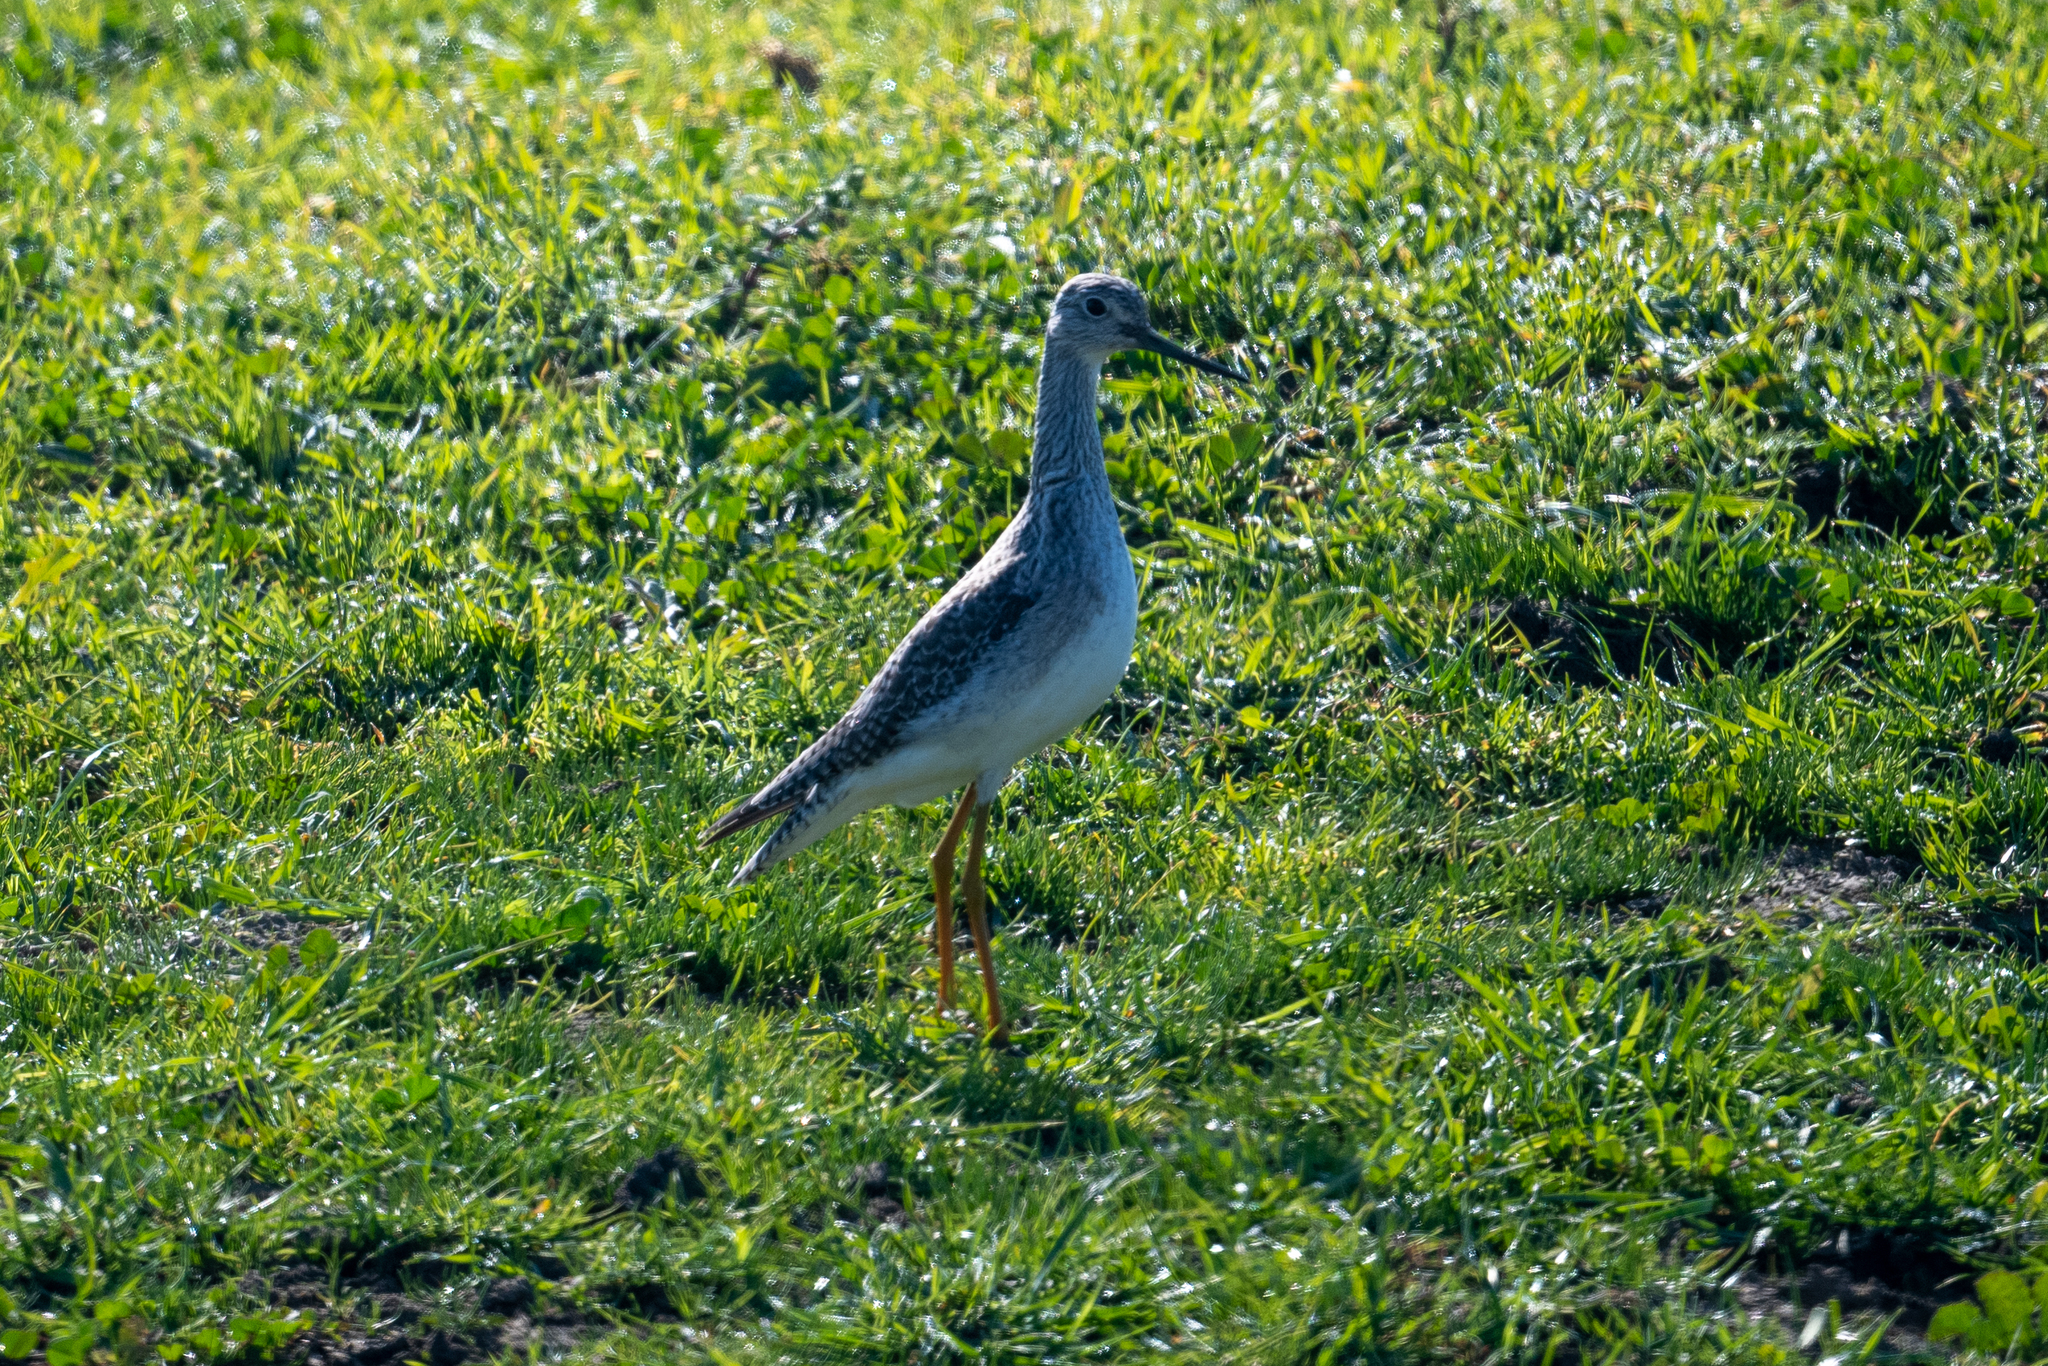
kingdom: Animalia
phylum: Chordata
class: Aves
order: Charadriiformes
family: Scolopacidae
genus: Tringa
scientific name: Tringa melanoleuca
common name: Greater yellowlegs
